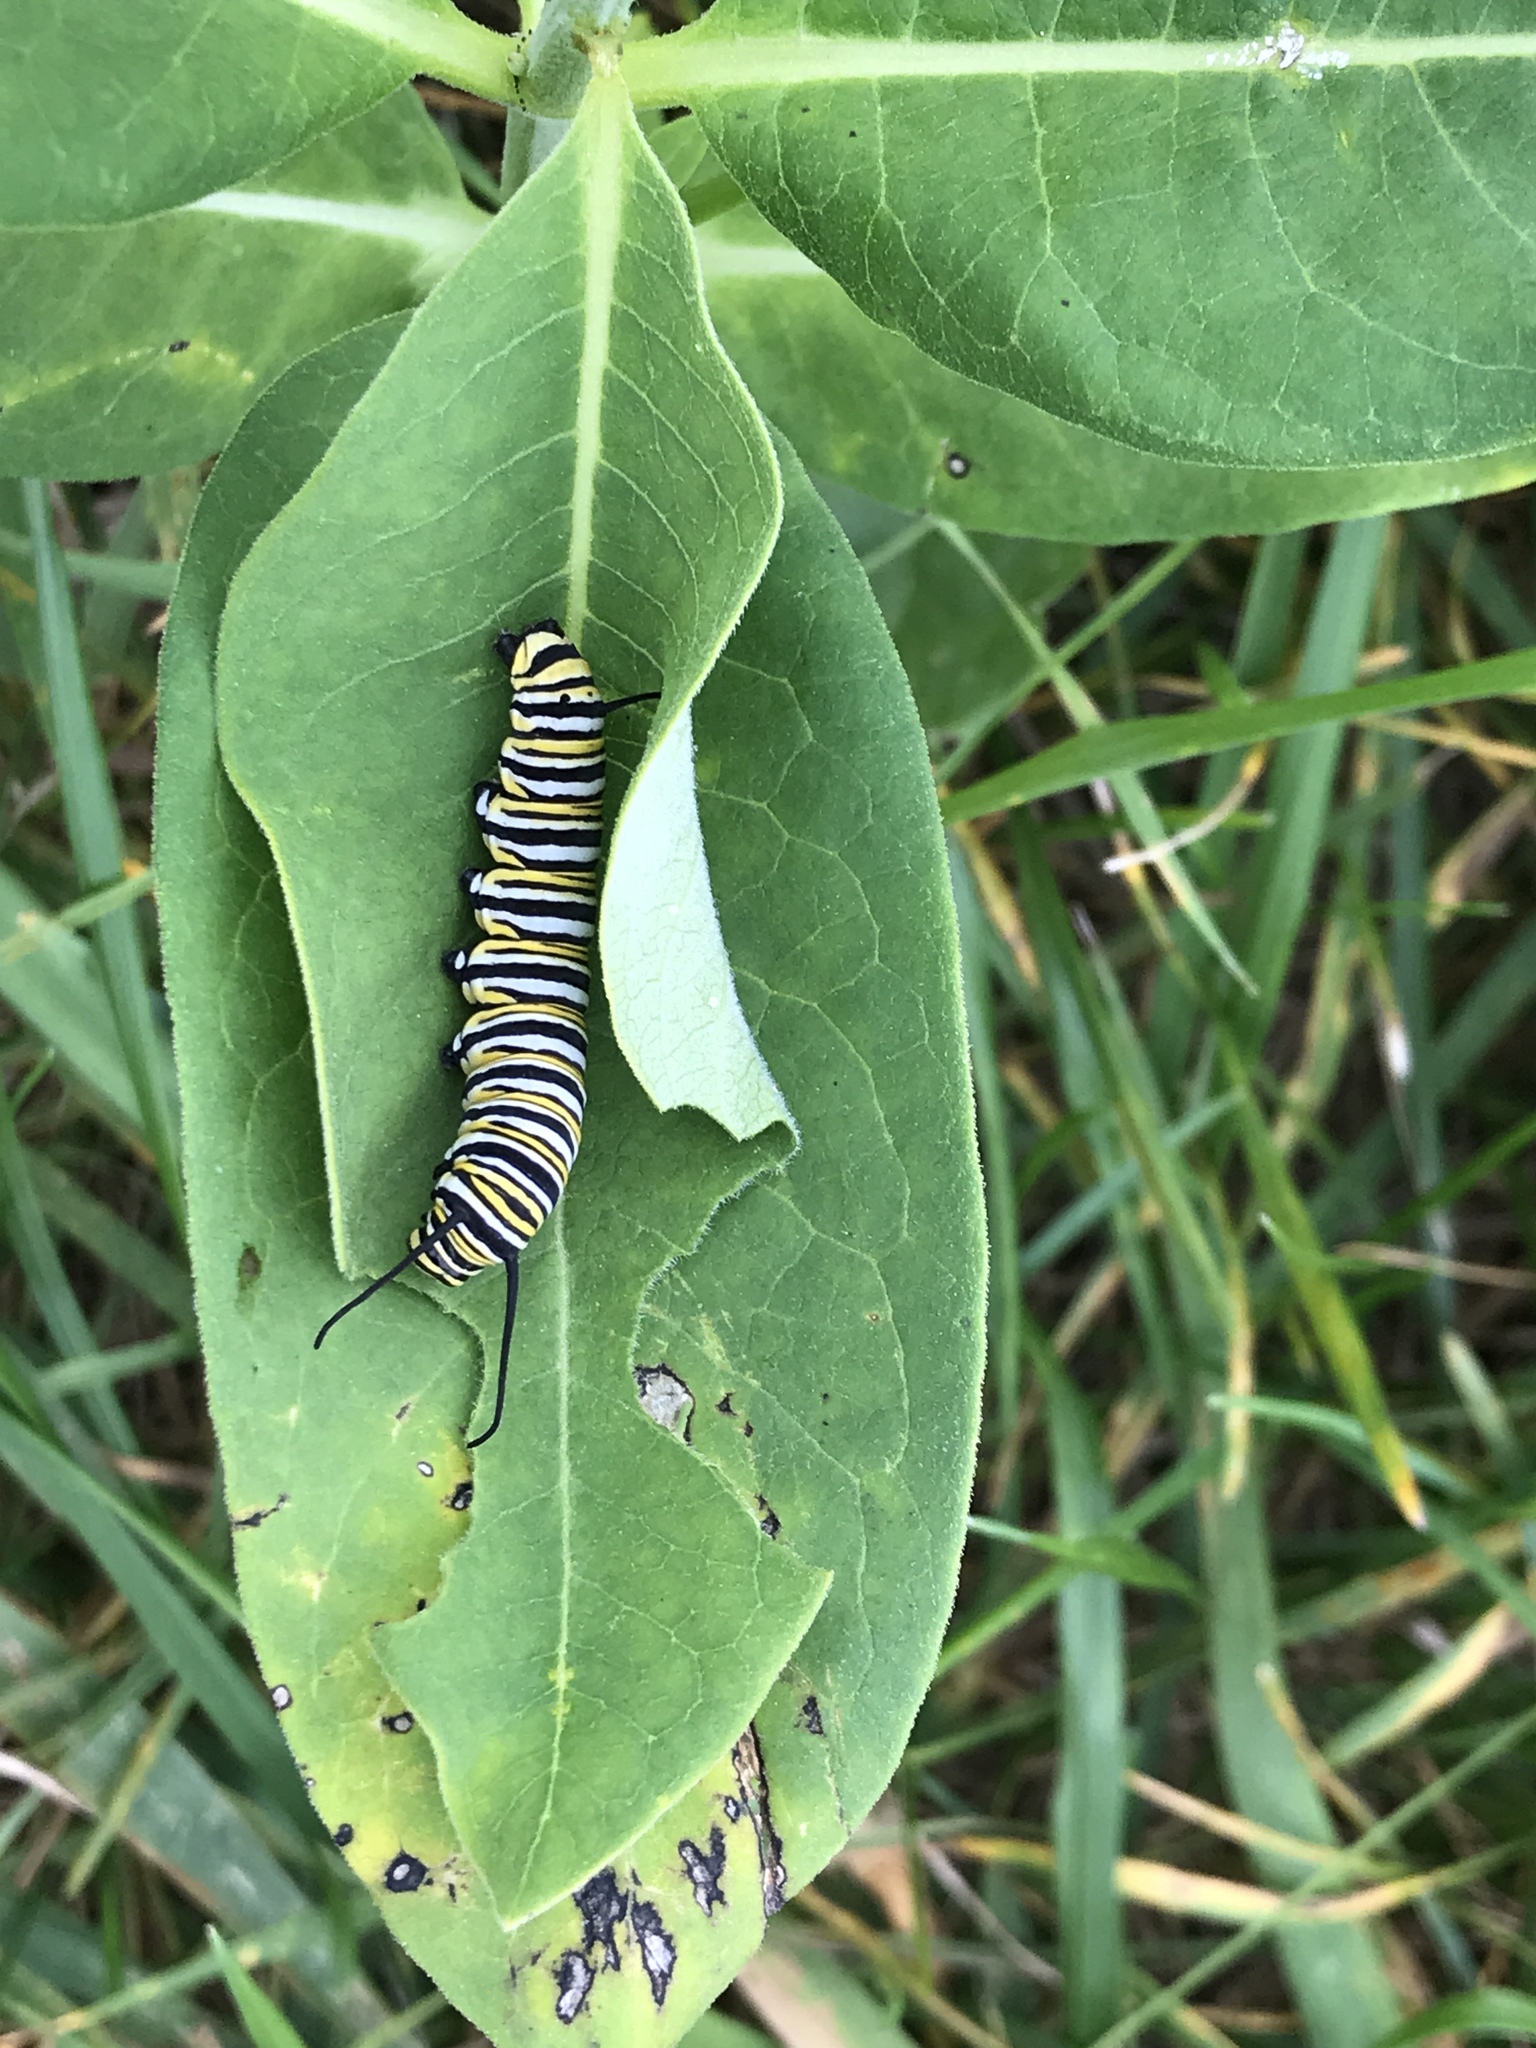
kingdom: Animalia
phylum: Arthropoda
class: Insecta
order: Lepidoptera
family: Nymphalidae
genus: Danaus
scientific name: Danaus plexippus
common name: Monarch
